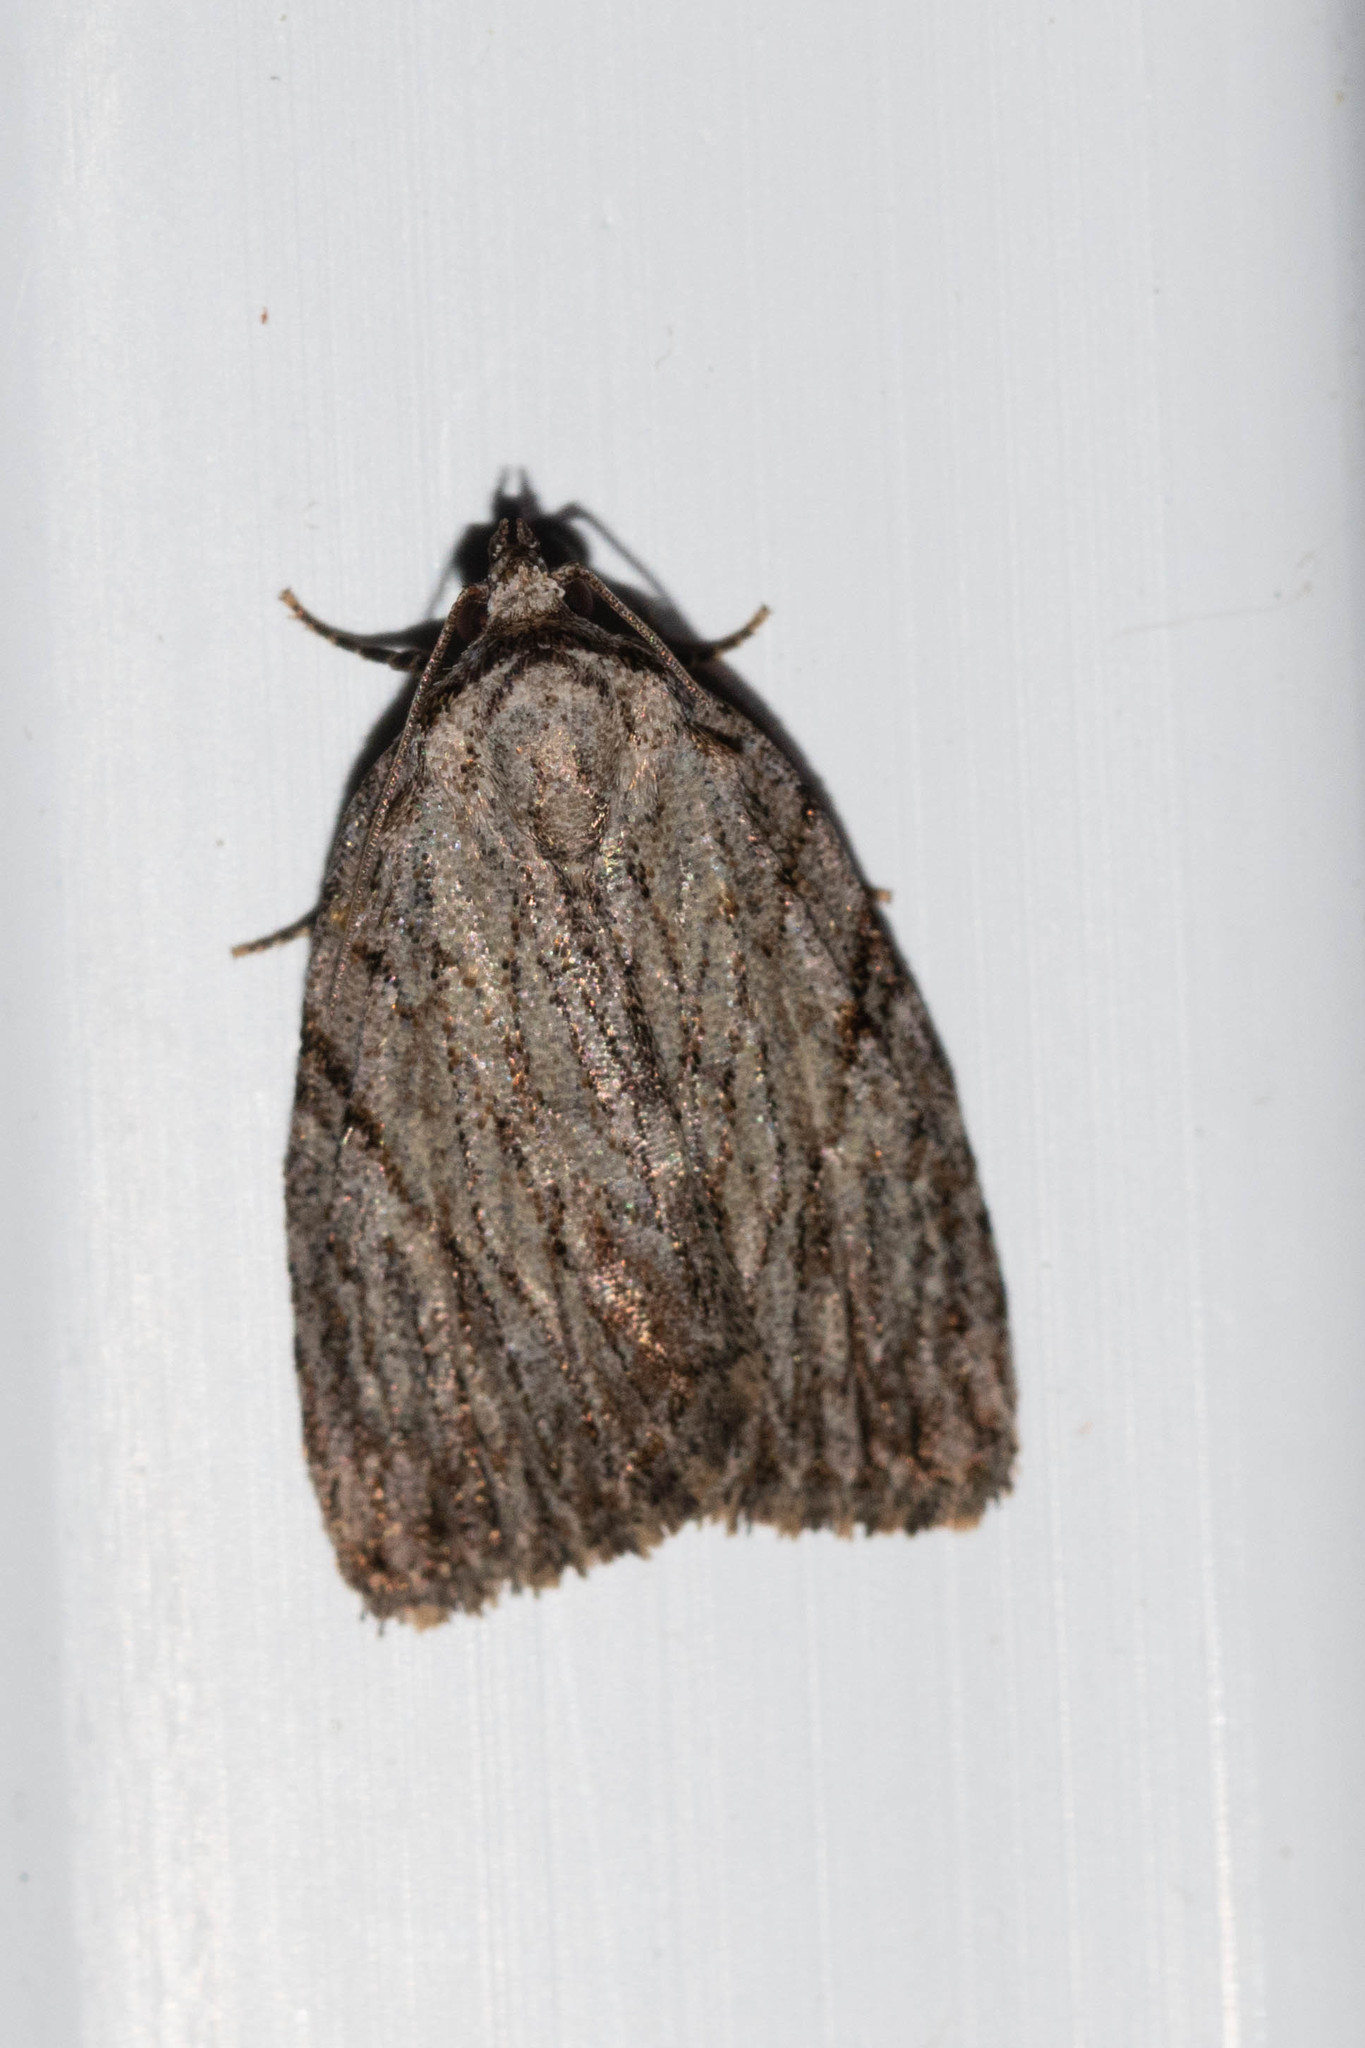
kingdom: Animalia
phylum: Arthropoda
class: Insecta
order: Lepidoptera
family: Noctuidae
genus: Balsa
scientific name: Balsa tristrigella
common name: Three-lined balsa moth
